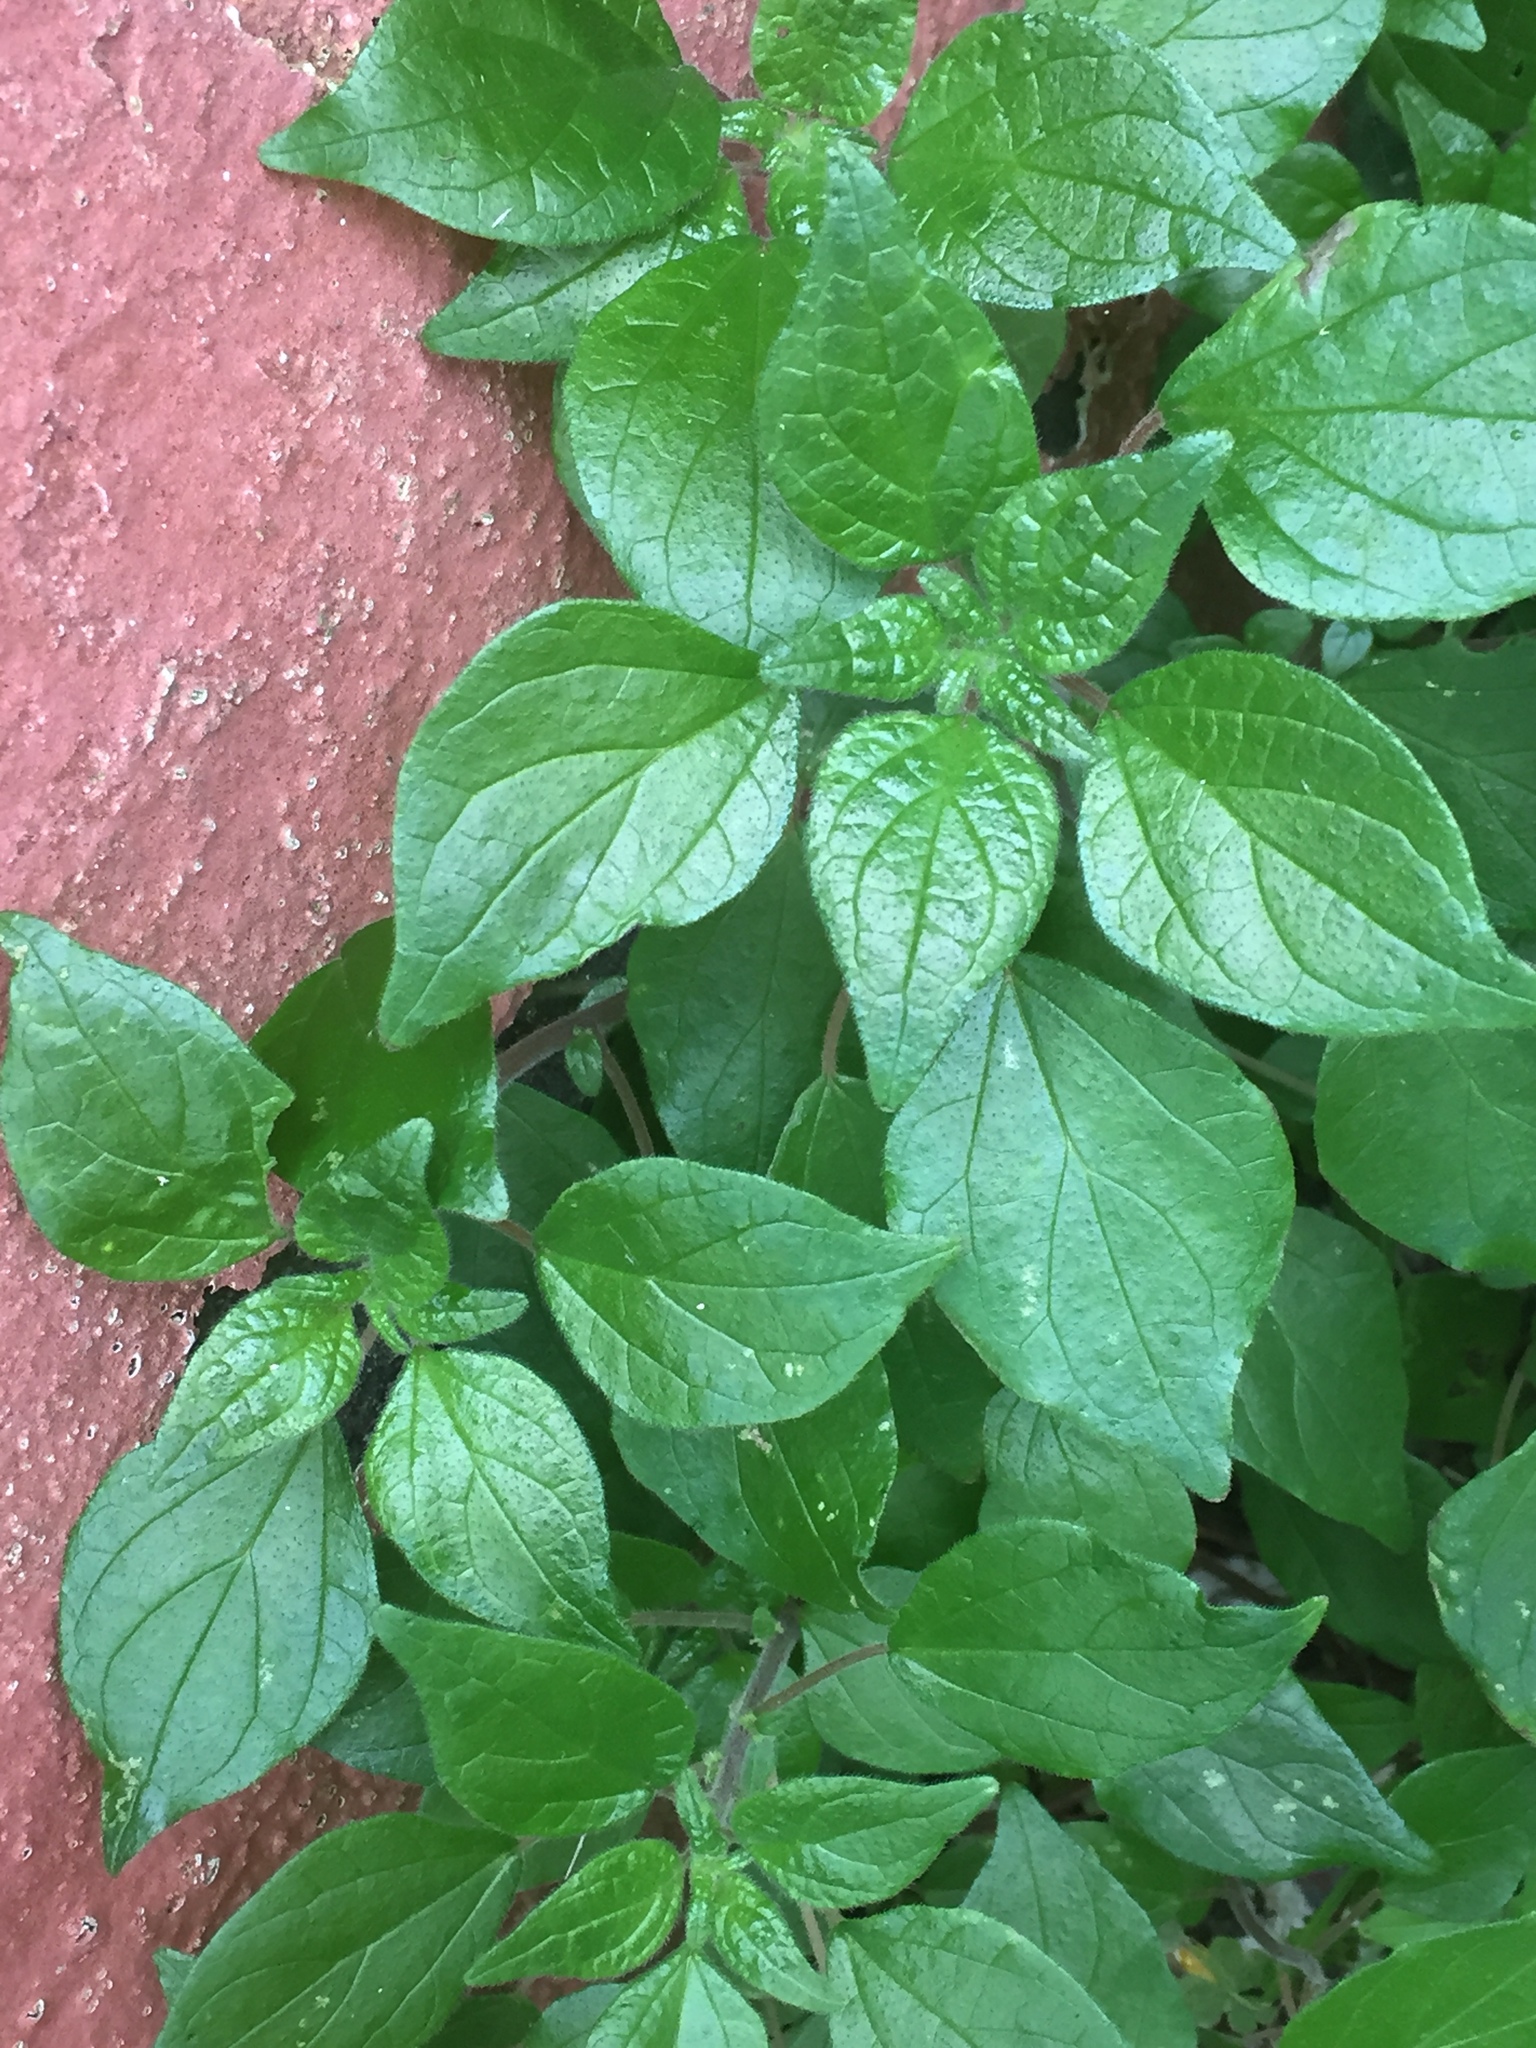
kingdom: Plantae
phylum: Tracheophyta
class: Magnoliopsida
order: Rosales
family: Urticaceae
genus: Parietaria
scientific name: Parietaria judaica
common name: Pellitory-of-the-wall
